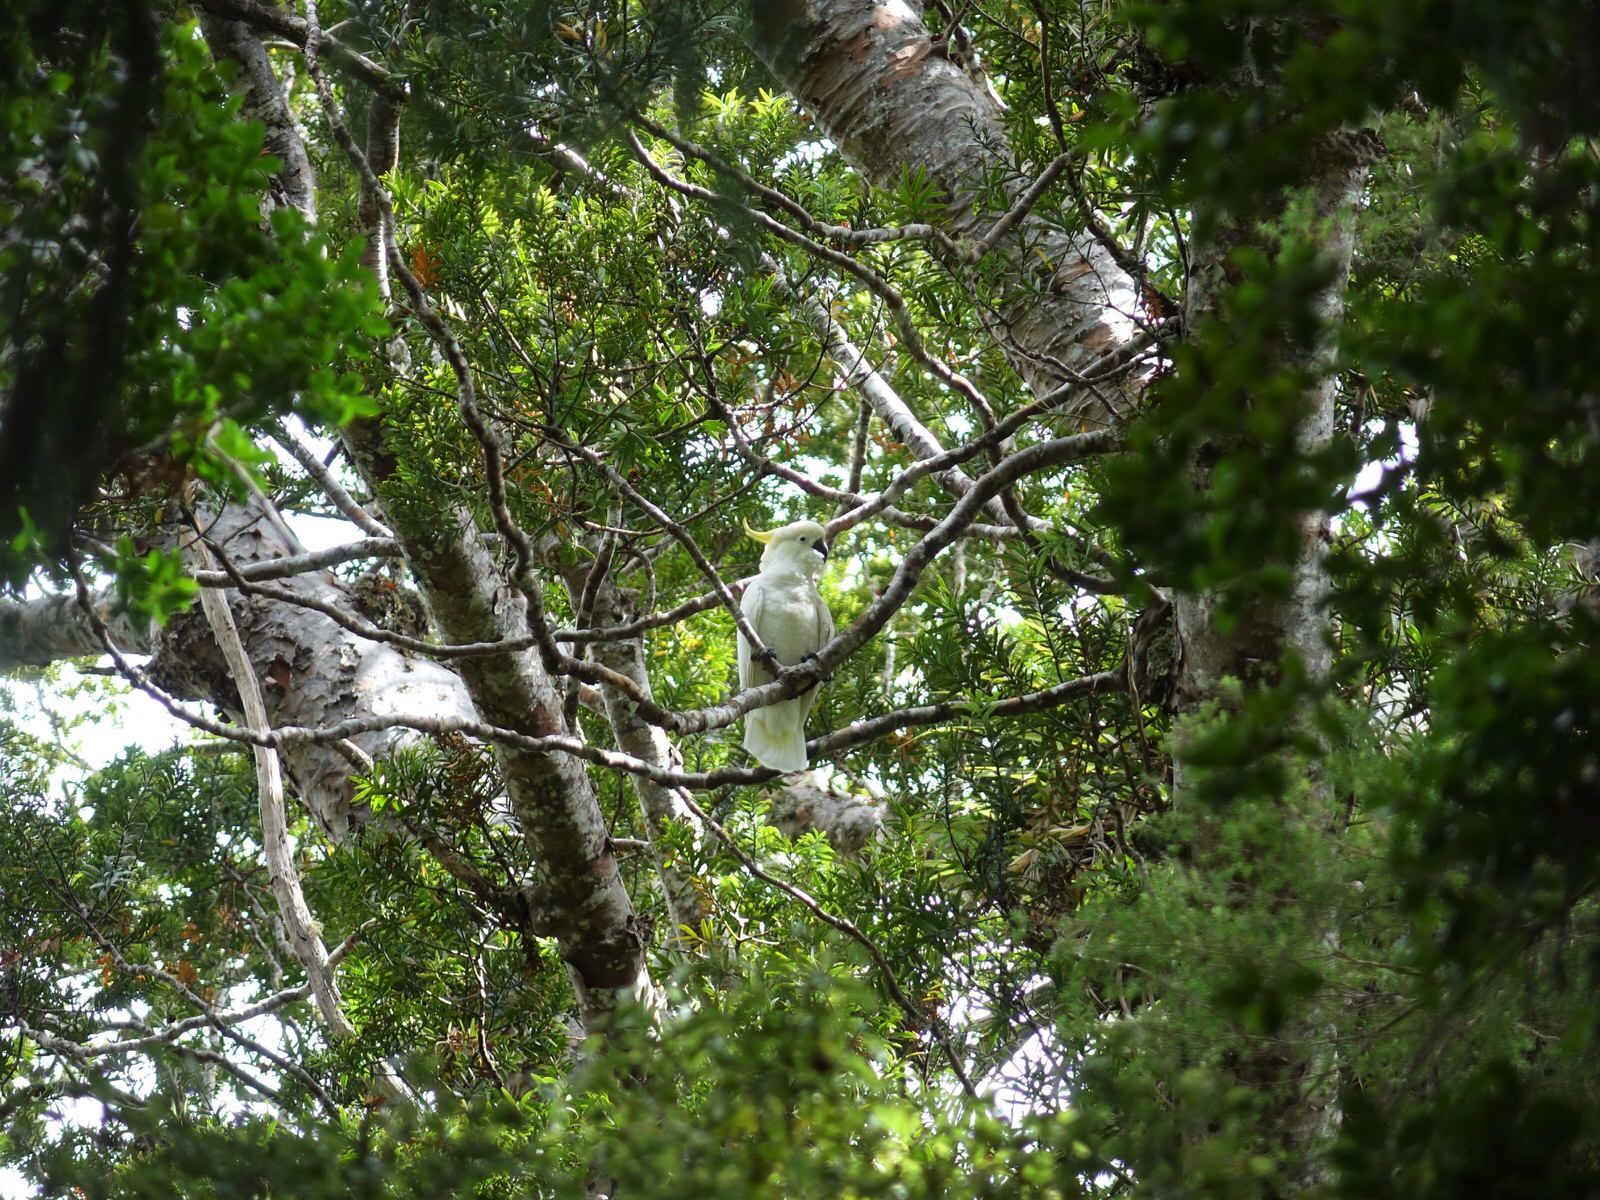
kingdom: Animalia
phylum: Chordata
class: Aves
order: Psittaciformes
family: Psittacidae
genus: Cacatua
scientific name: Cacatua galerita
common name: Sulphur-crested cockatoo
